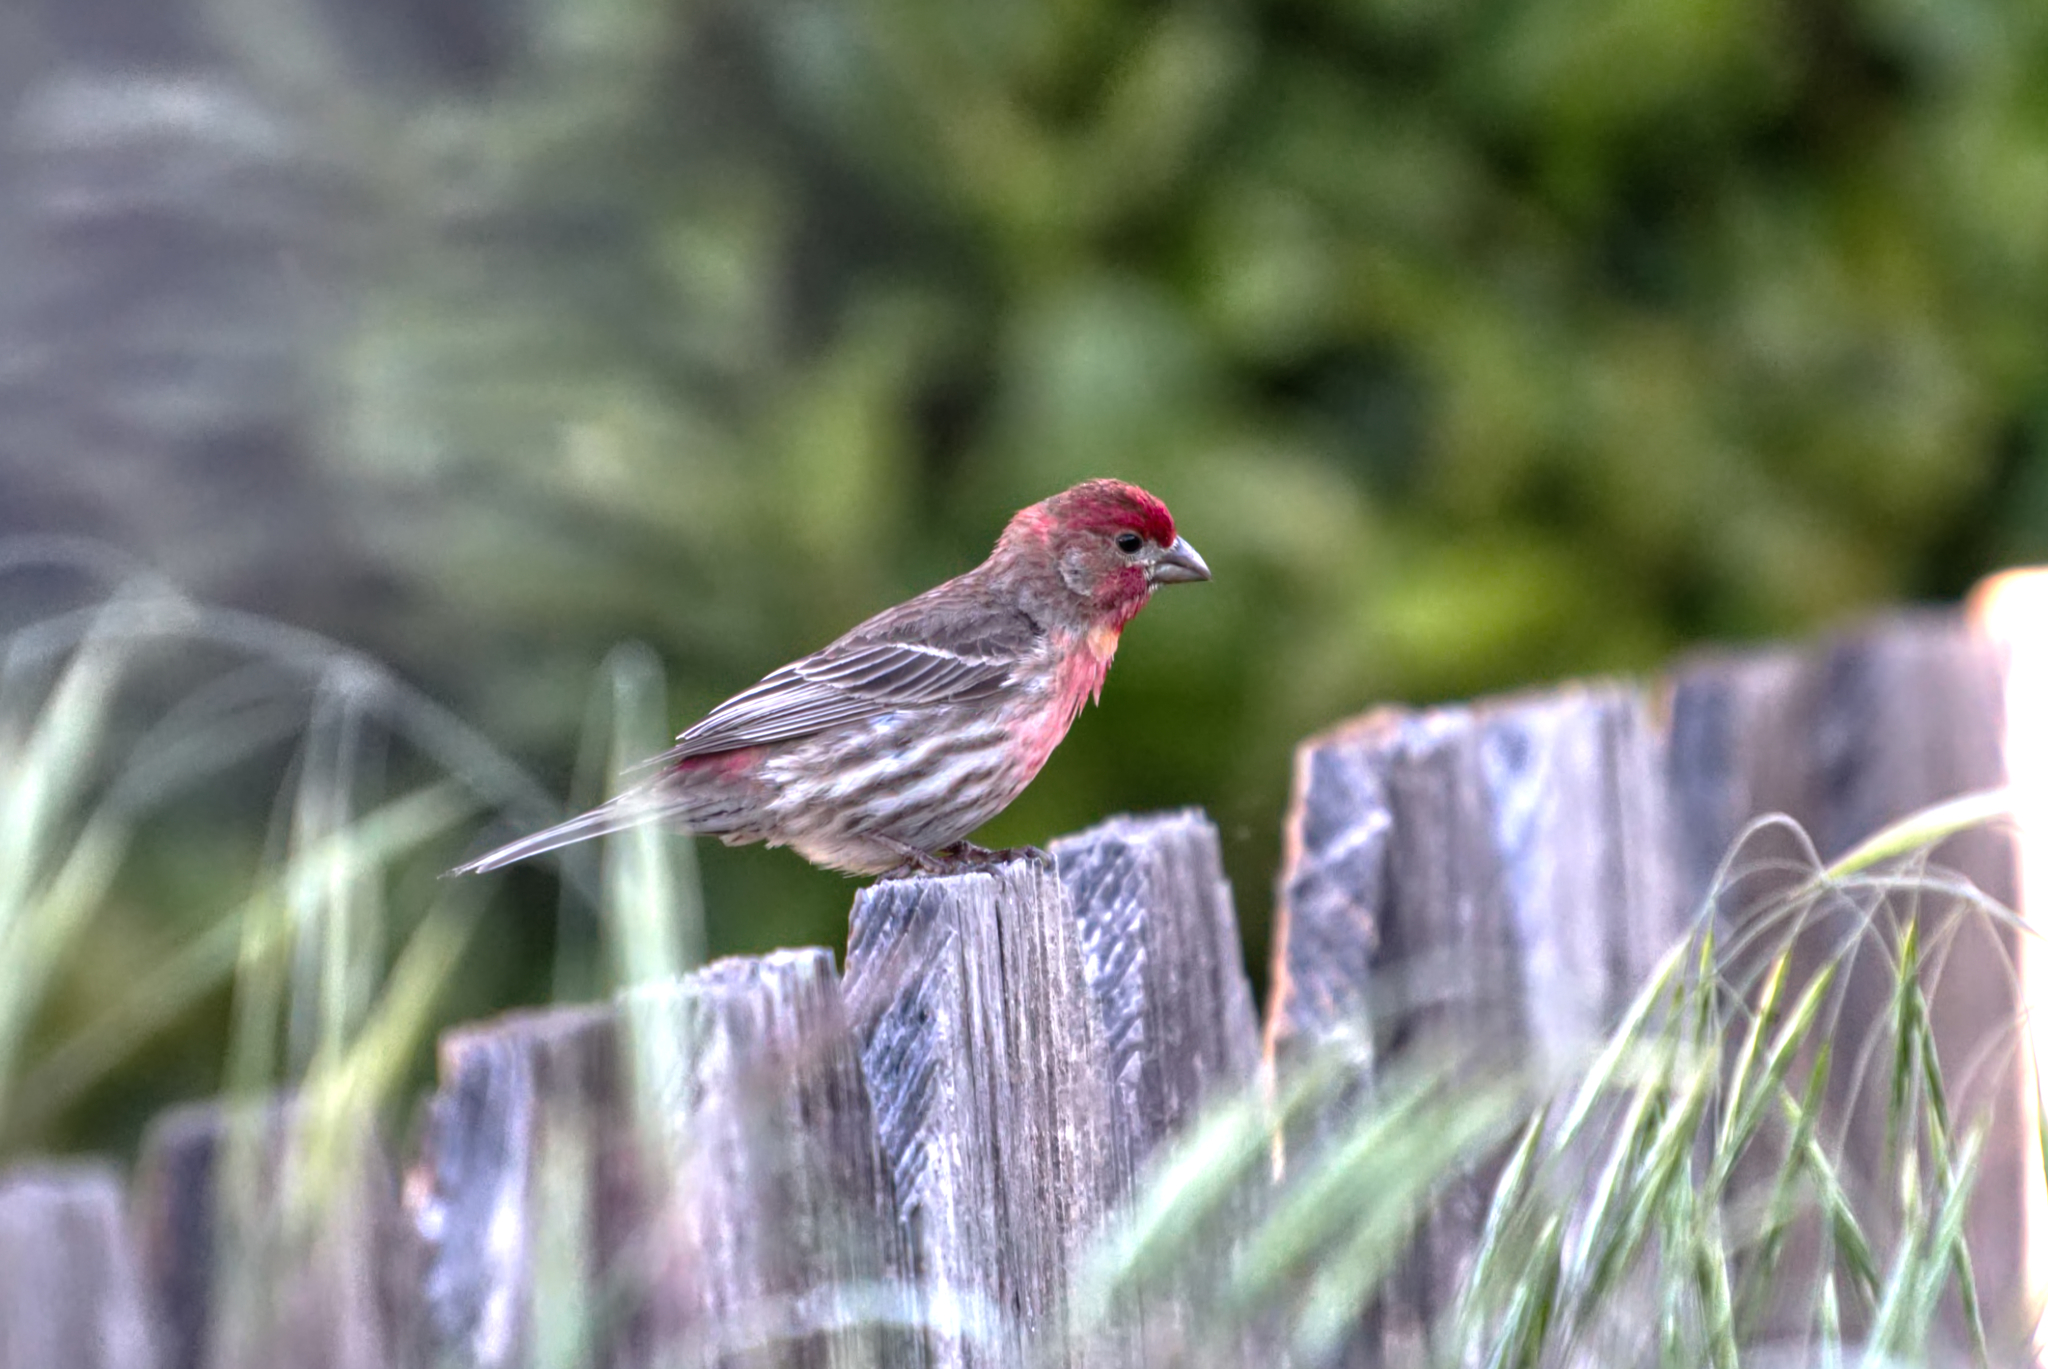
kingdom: Animalia
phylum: Chordata
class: Aves
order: Passeriformes
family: Fringillidae
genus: Haemorhous
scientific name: Haemorhous mexicanus
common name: House finch
